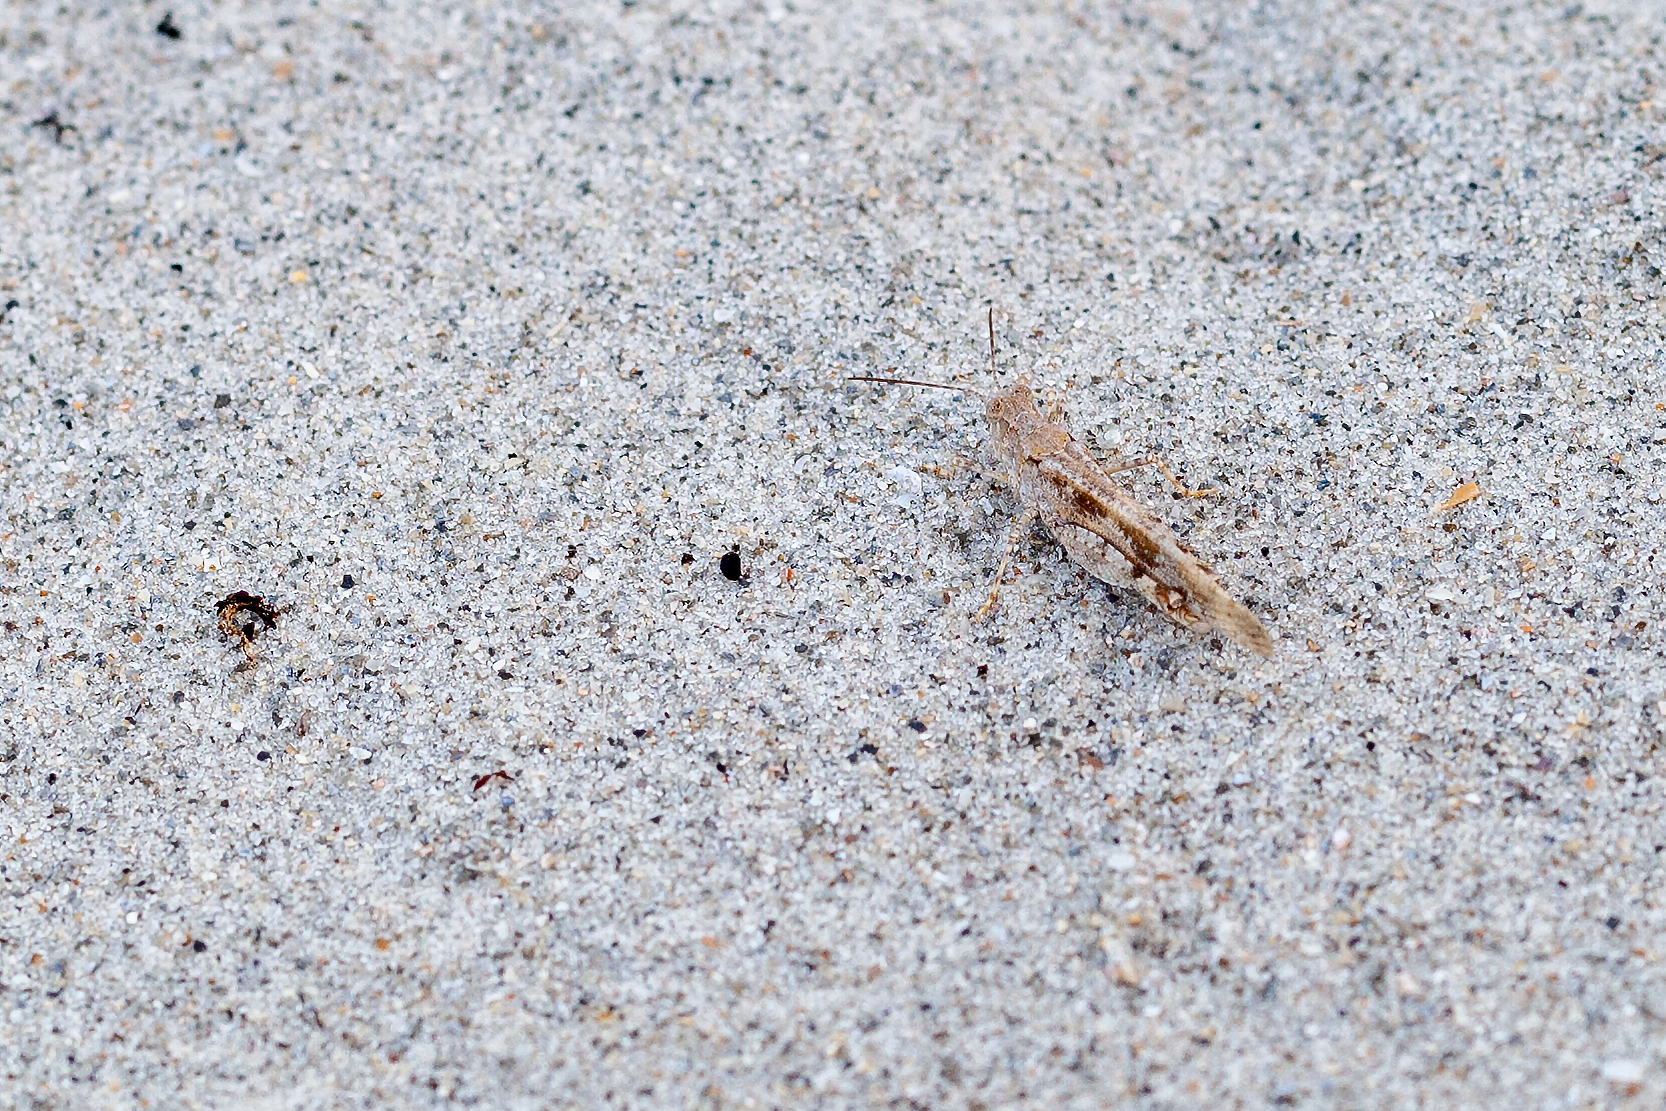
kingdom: Animalia
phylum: Arthropoda
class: Insecta
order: Orthoptera
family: Acrididae
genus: Trimerotropis
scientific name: Trimerotropis maritima
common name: Seaside locust
